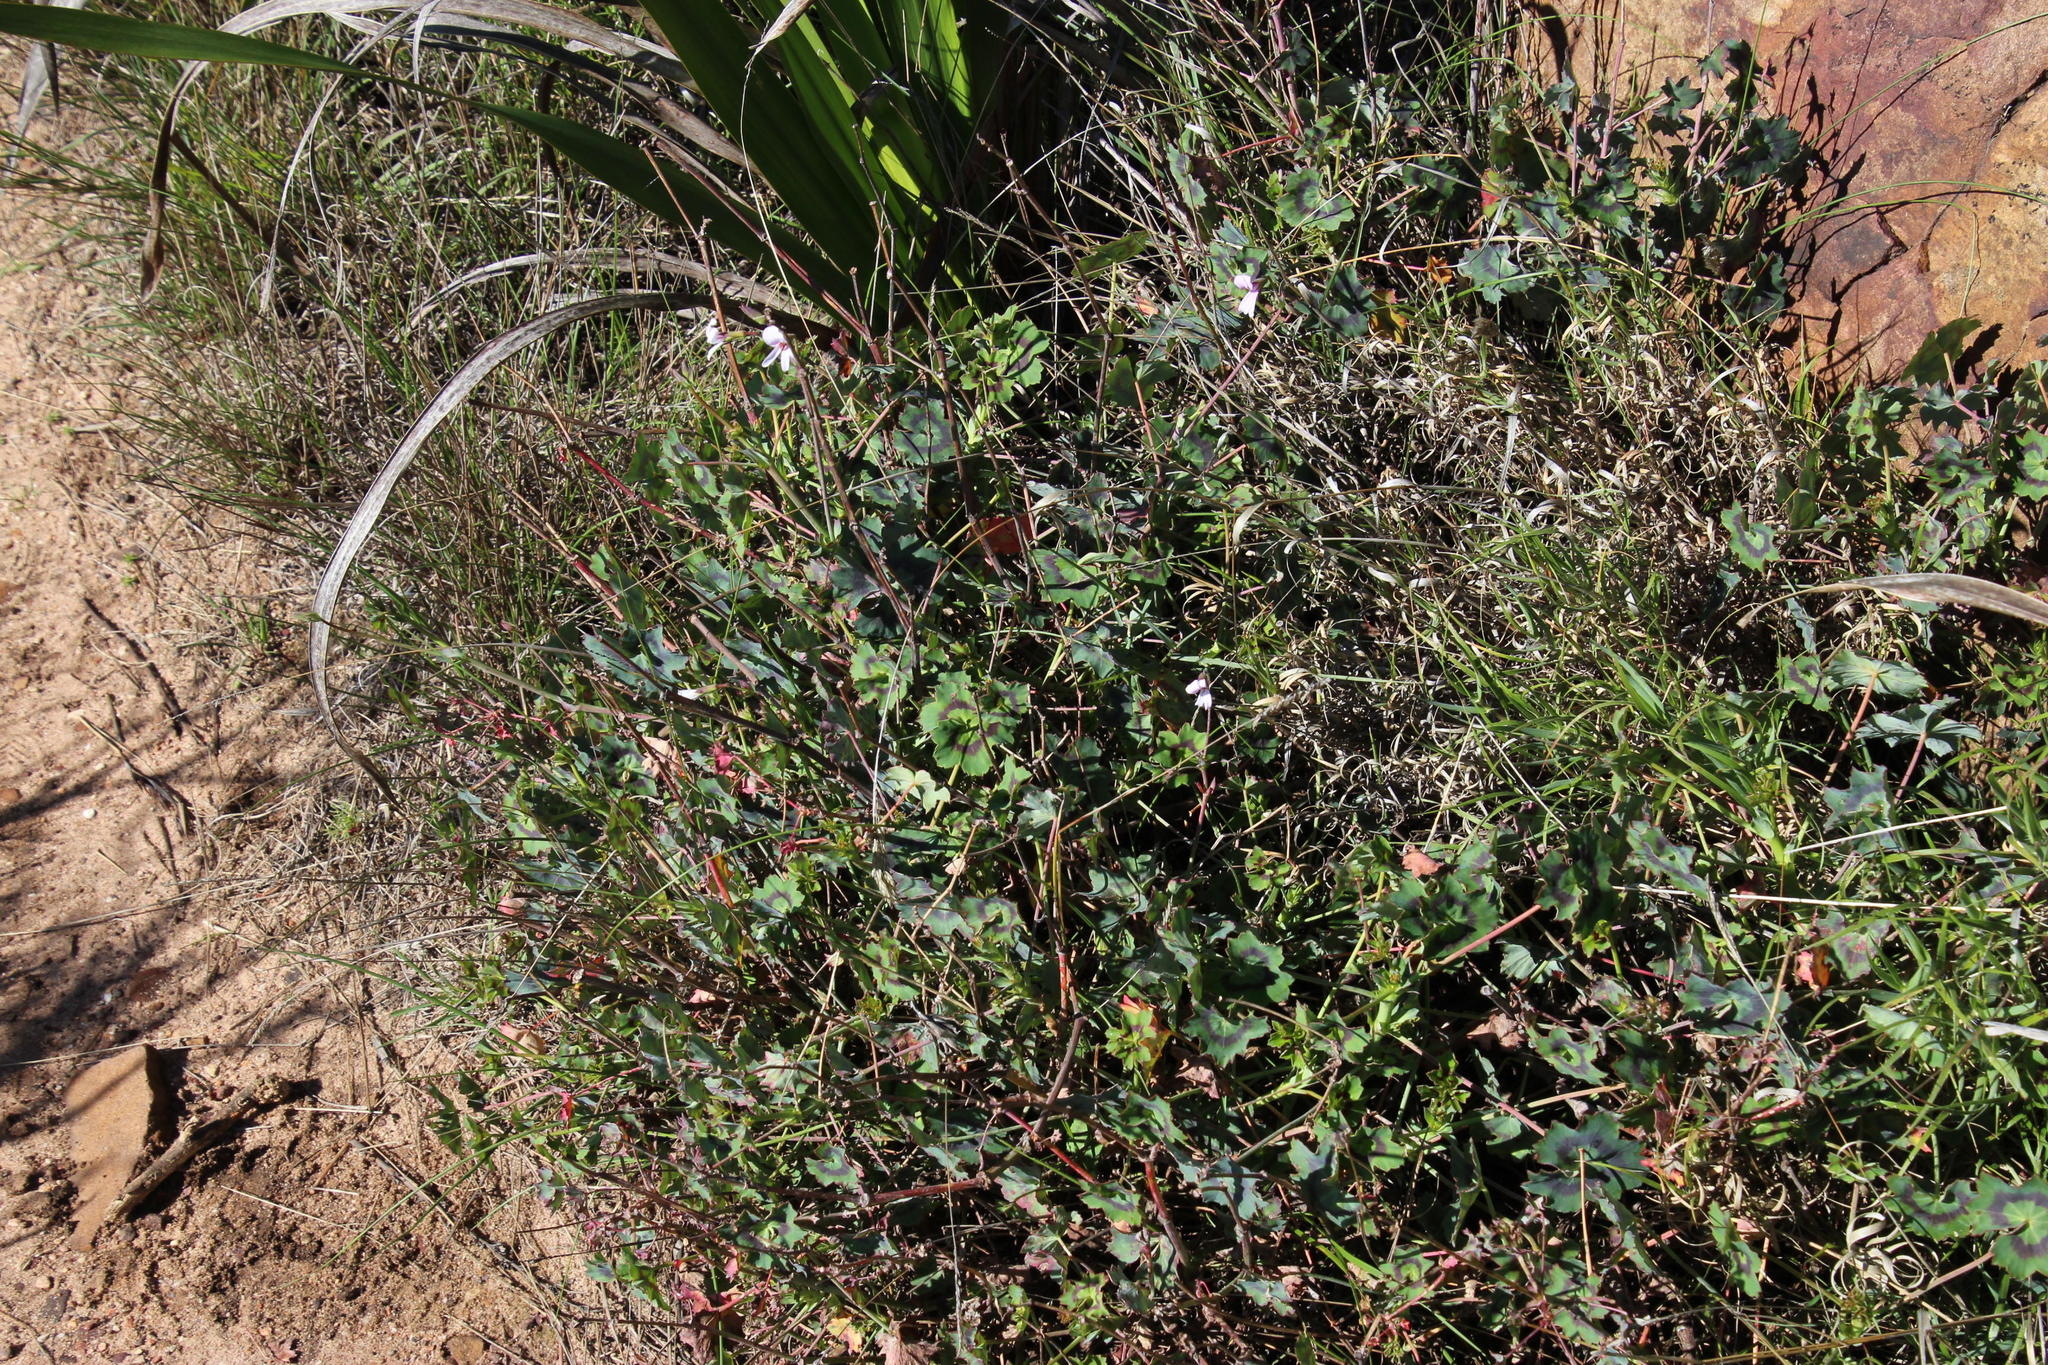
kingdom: Plantae
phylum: Tracheophyta
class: Magnoliopsida
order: Geraniales
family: Geraniaceae
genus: Pelargonium
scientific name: Pelargonium tabulare
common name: Table mountain pelargonium
